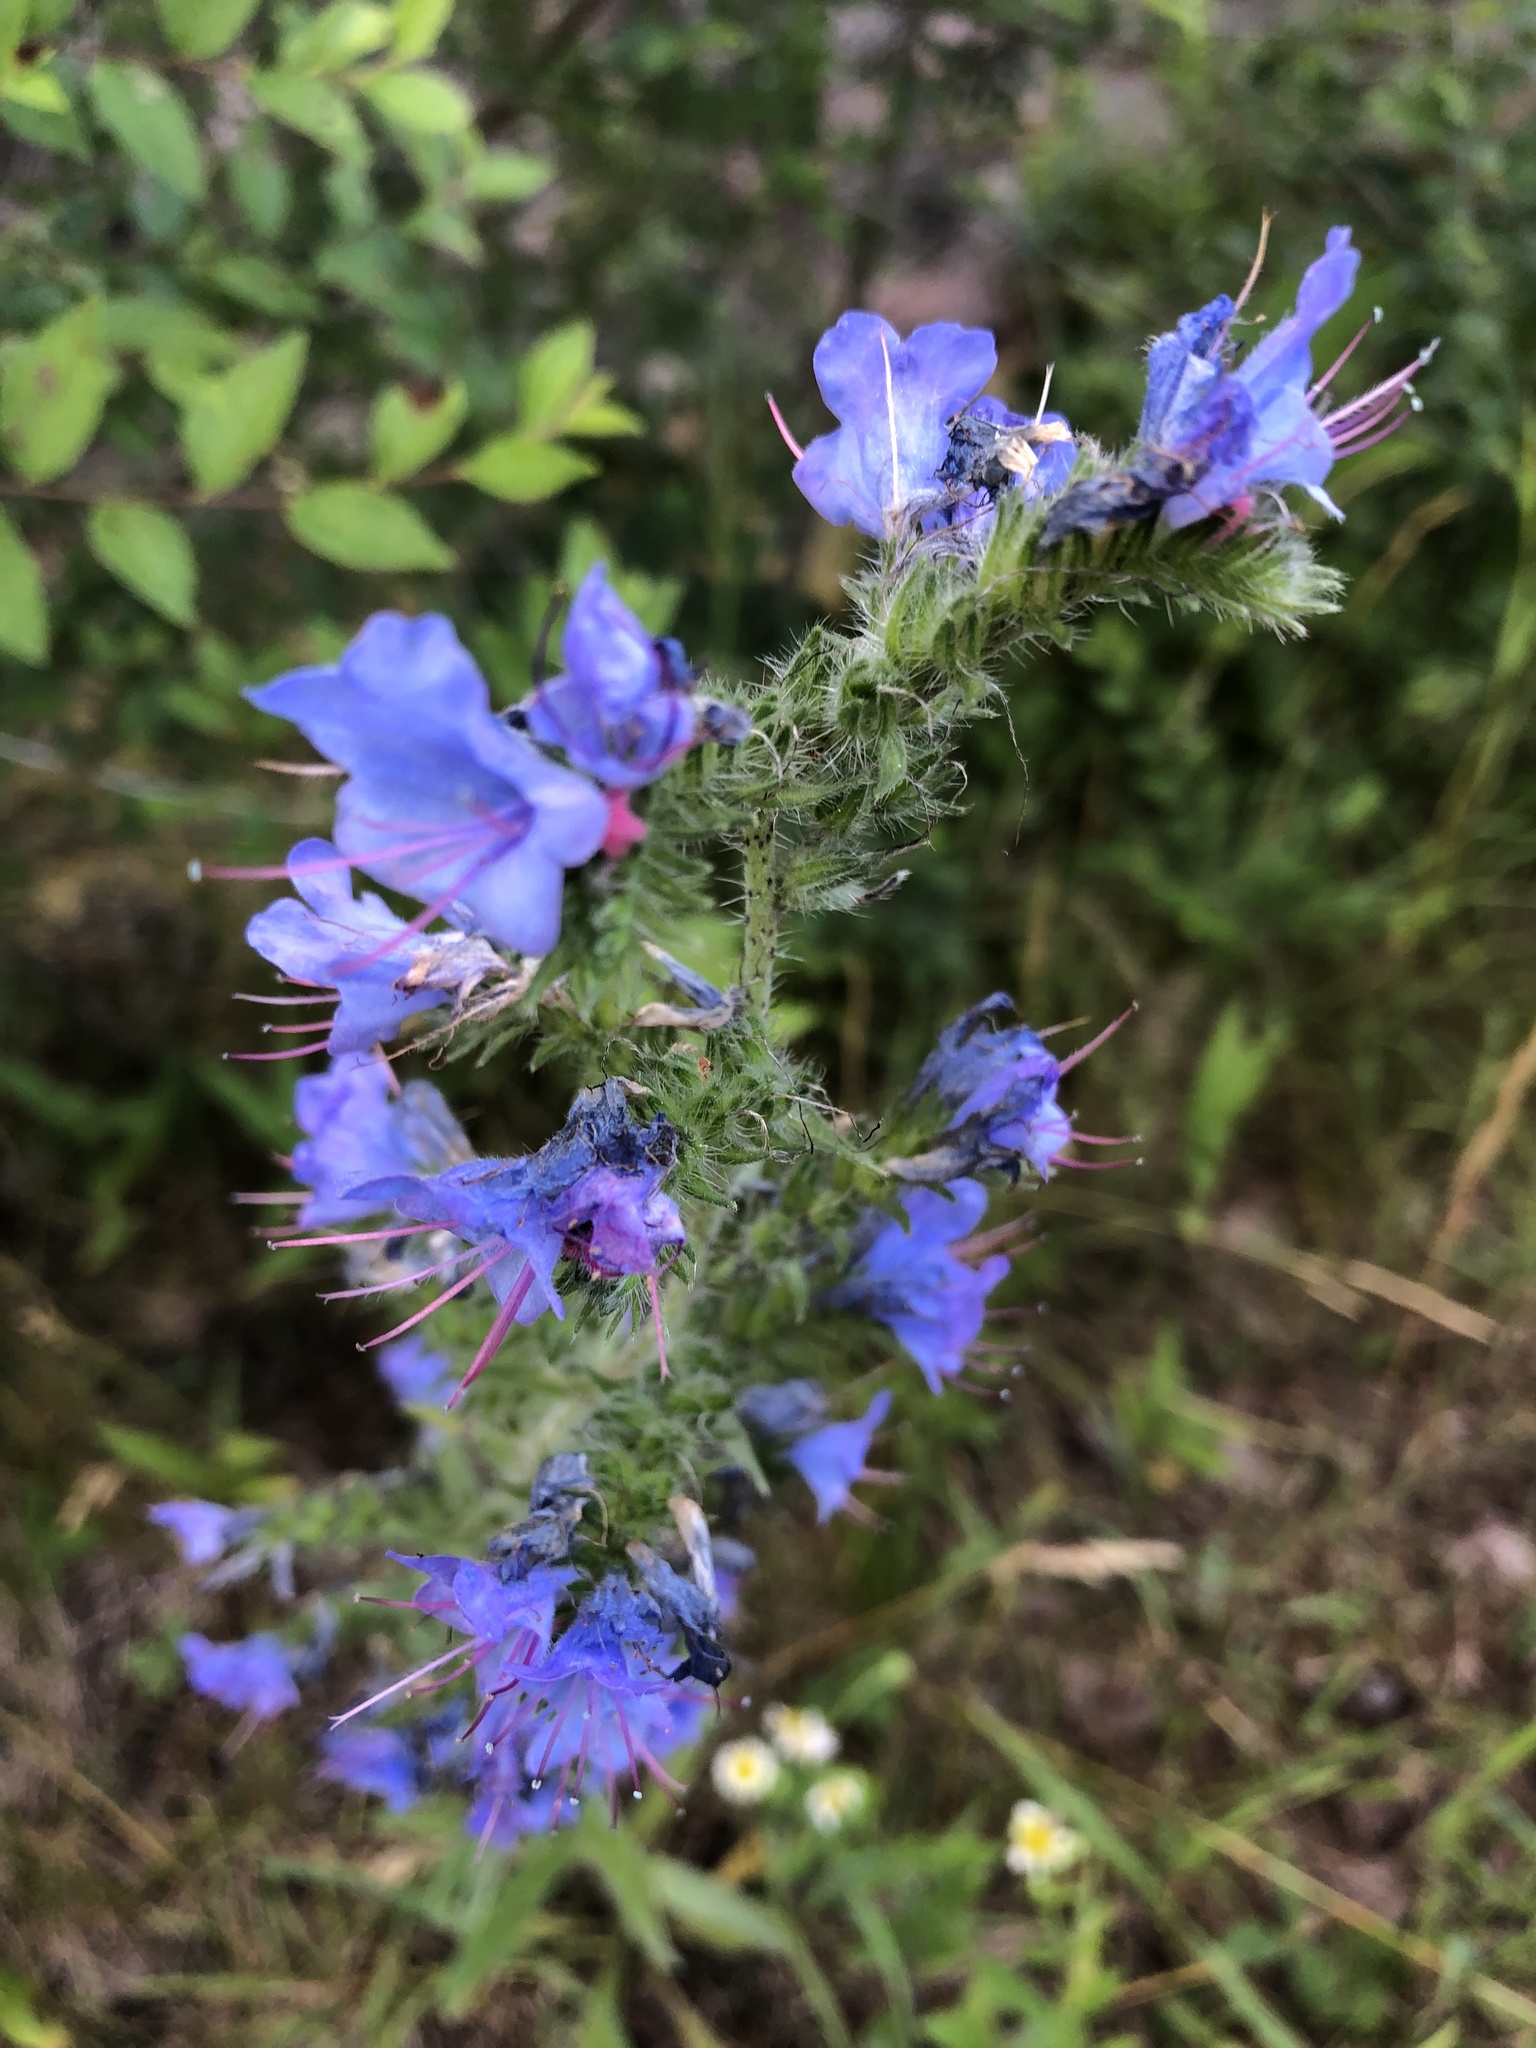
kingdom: Plantae
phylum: Tracheophyta
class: Magnoliopsida
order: Boraginales
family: Boraginaceae
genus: Echium
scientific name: Echium vulgare
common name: Common viper's bugloss
